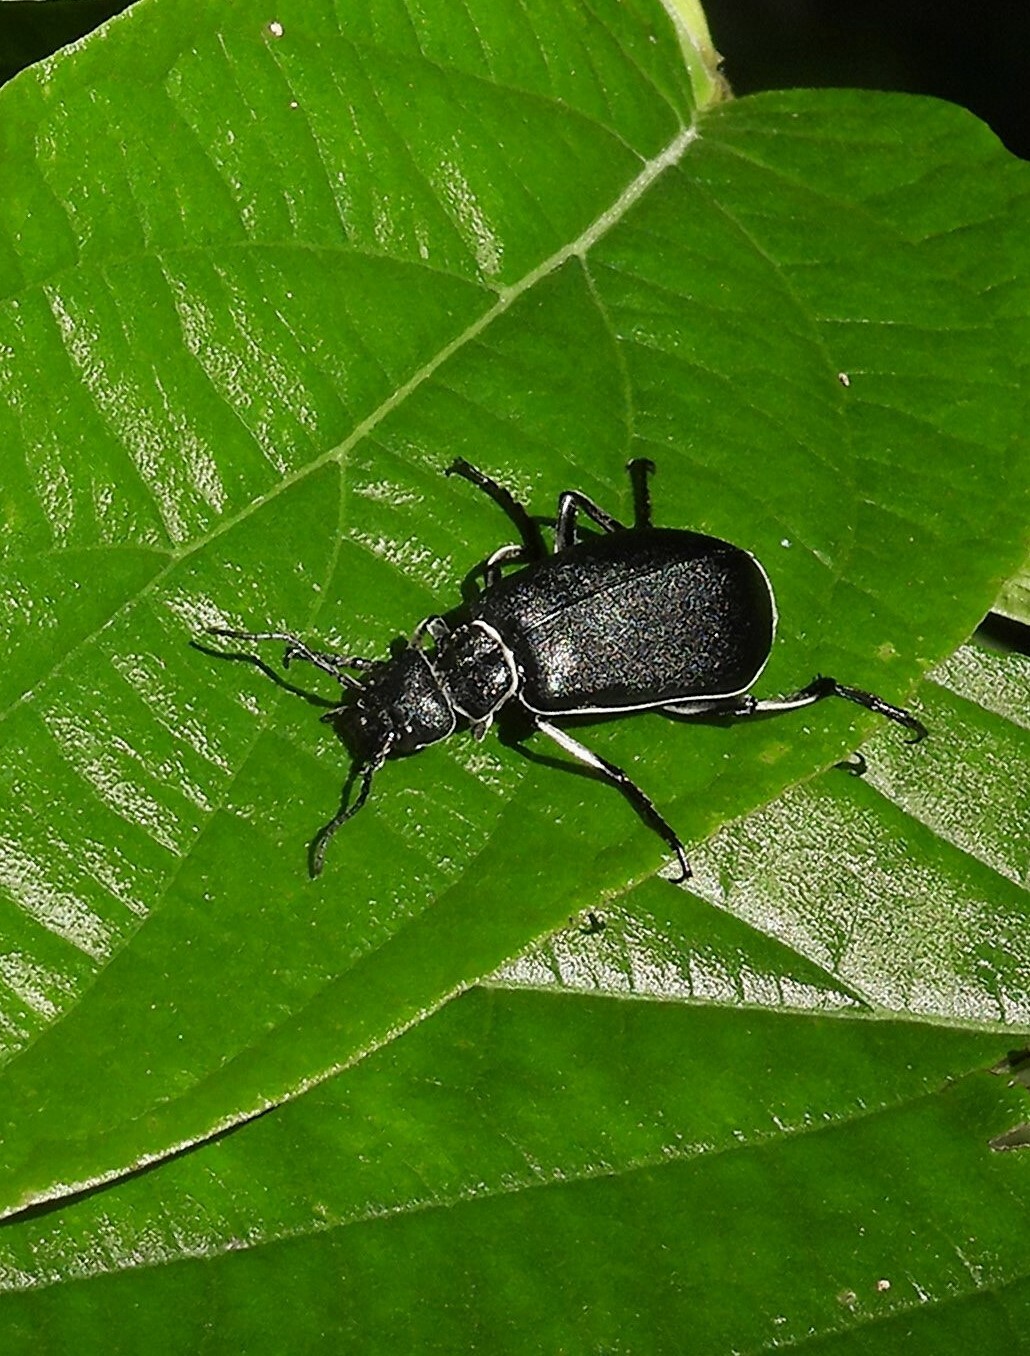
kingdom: Animalia
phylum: Arthropoda
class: Insecta
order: Coleoptera
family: Meloidae
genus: Epicauta
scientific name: Epicauta
